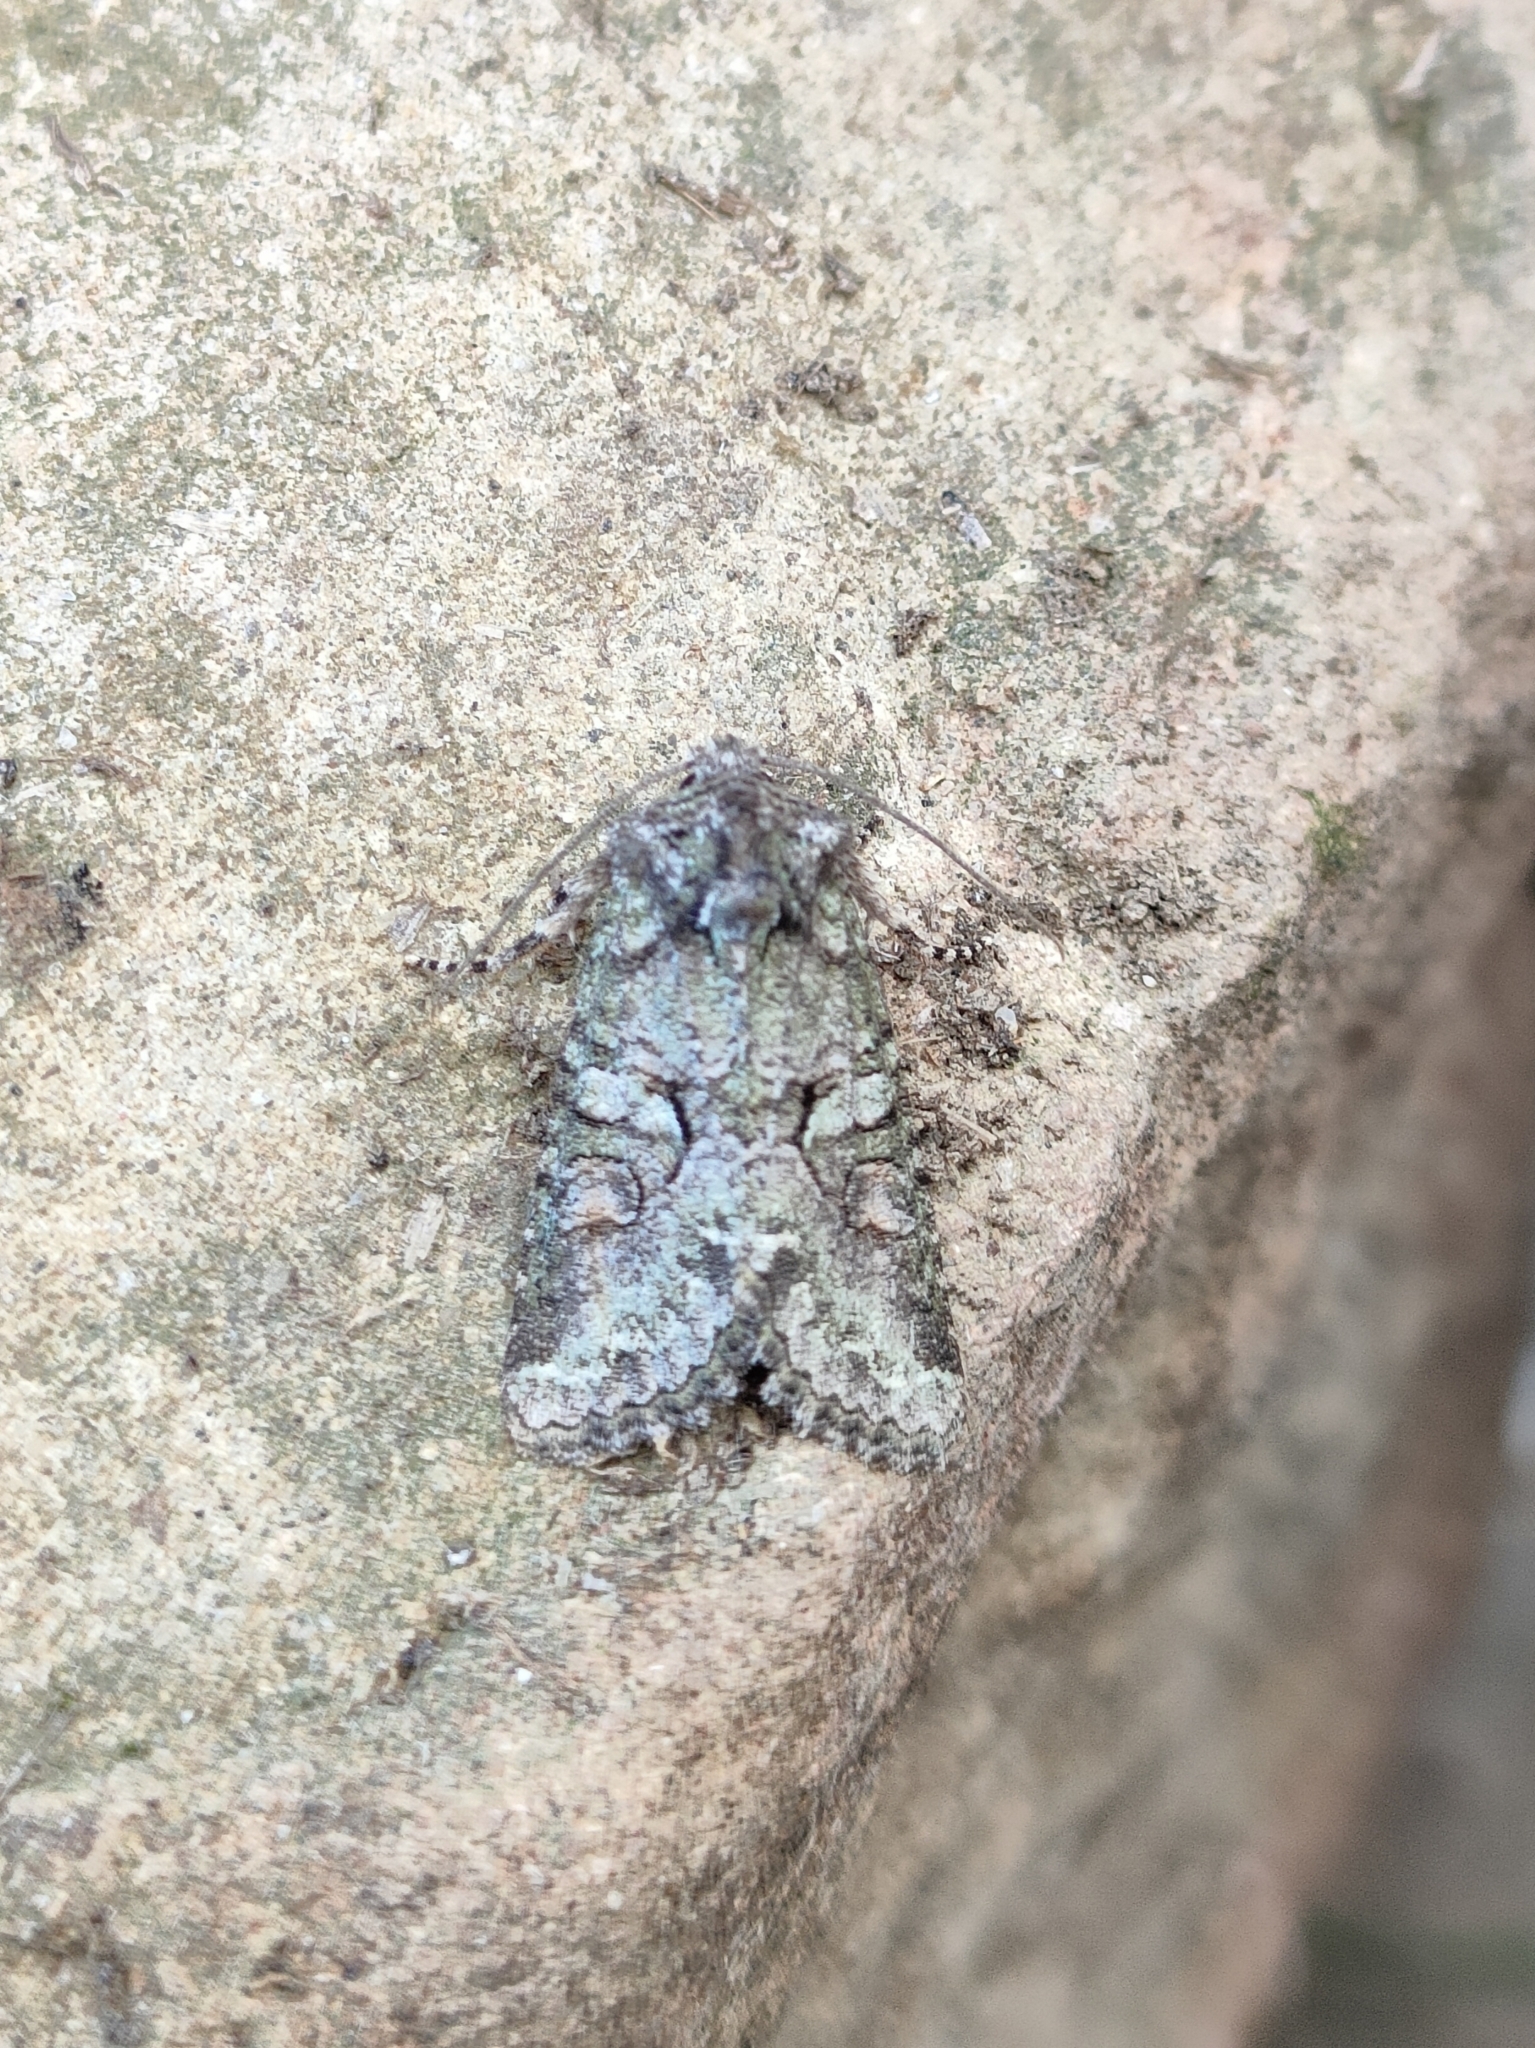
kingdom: Animalia
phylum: Arthropoda
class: Insecta
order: Lepidoptera
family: Noctuidae
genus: Dryobotodes
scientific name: Dryobotodes roboris
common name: Southern brindled green
